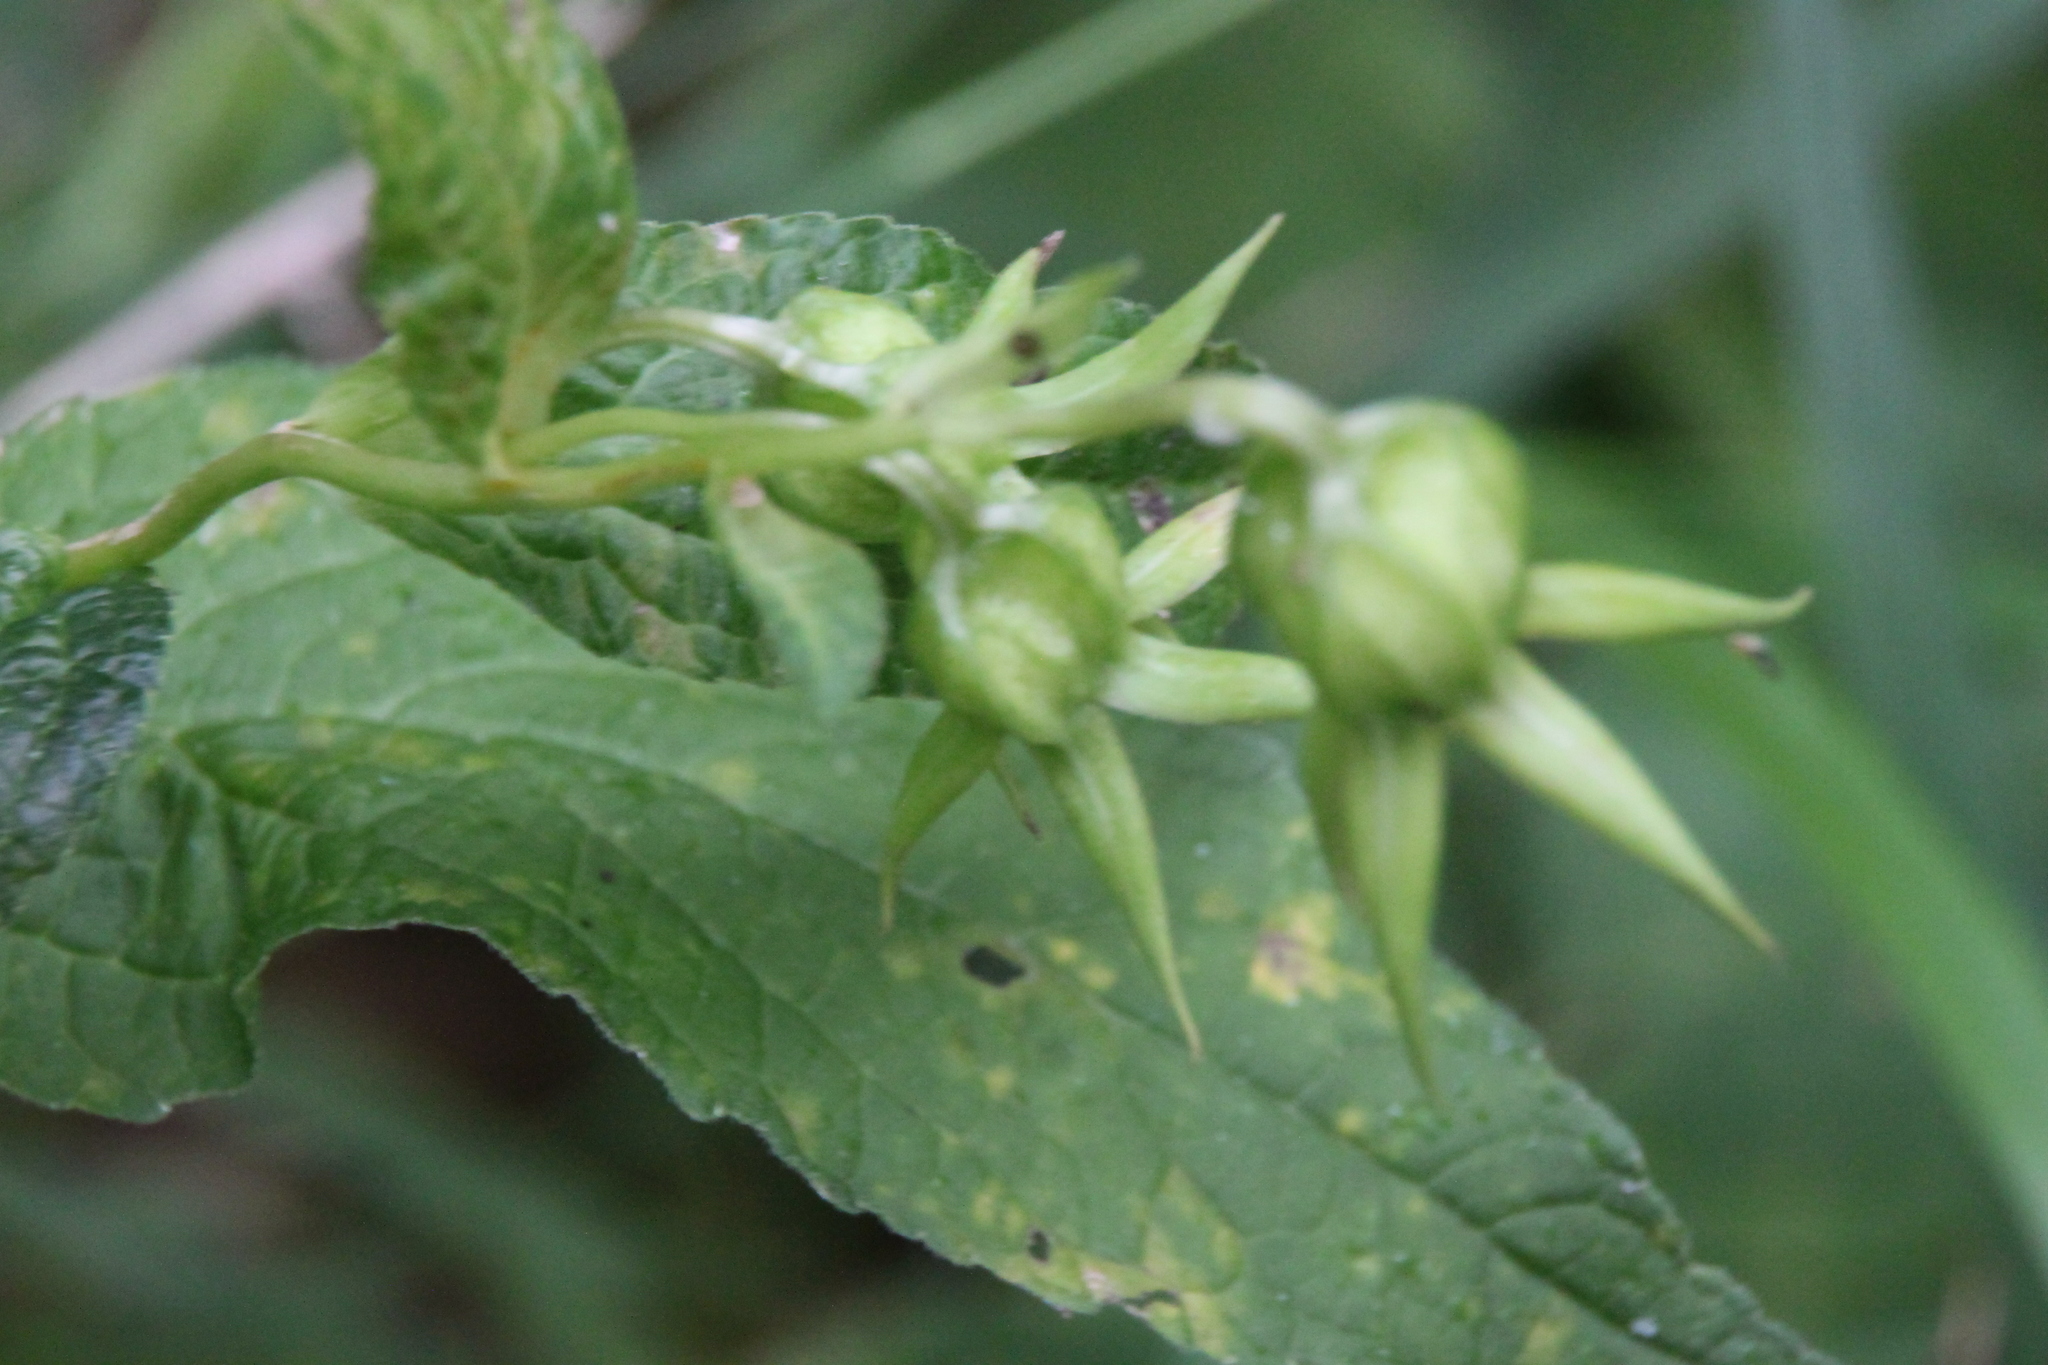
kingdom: Plantae
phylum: Tracheophyta
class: Magnoliopsida
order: Asterales
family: Campanulaceae
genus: Campanula
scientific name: Campanula latifolia
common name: Giant bellflower
